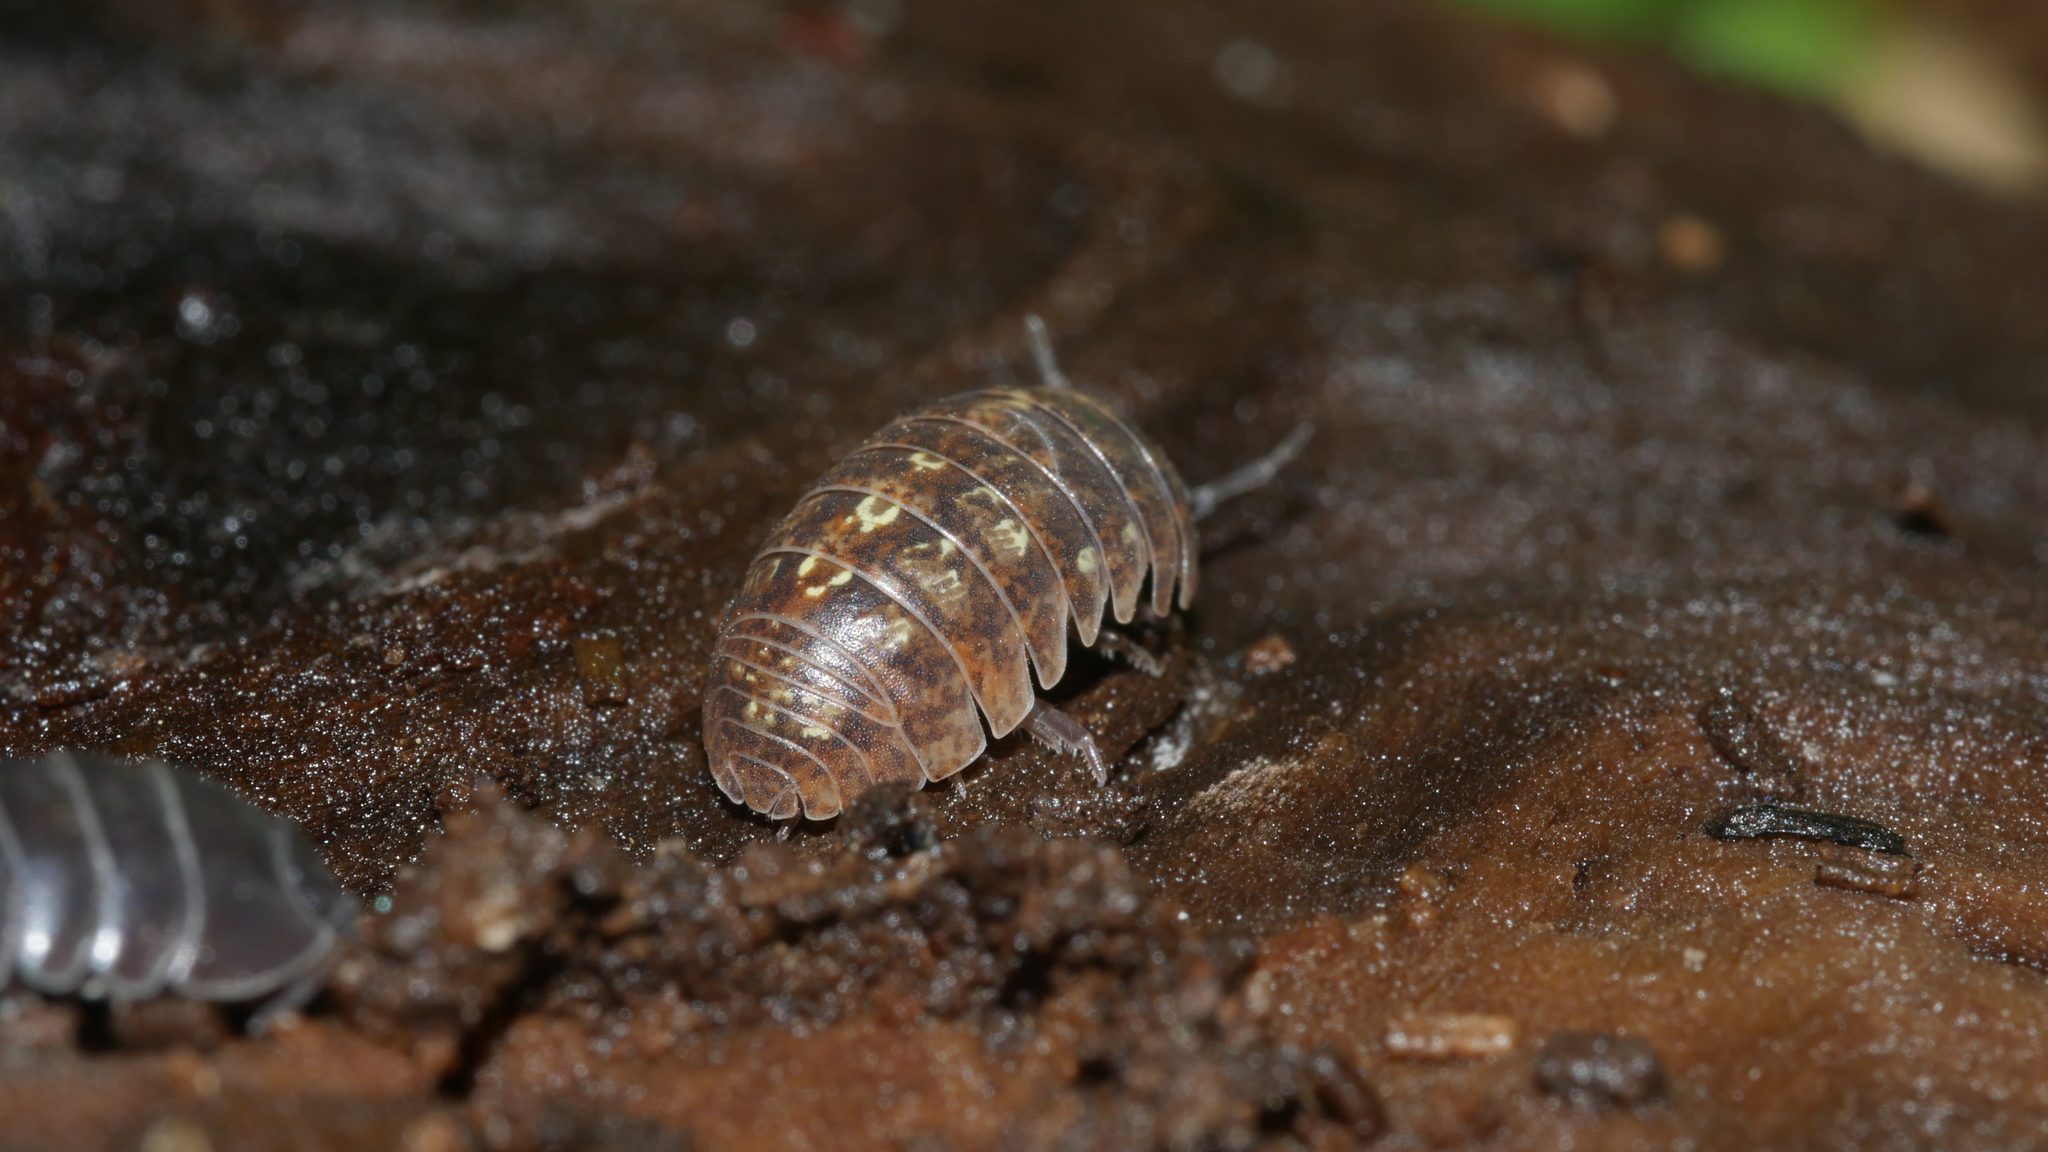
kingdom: Animalia
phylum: Arthropoda
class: Malacostraca
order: Isopoda
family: Armadillidiidae
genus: Armadillidium
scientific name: Armadillidium vulgare
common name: Common pill woodlouse
